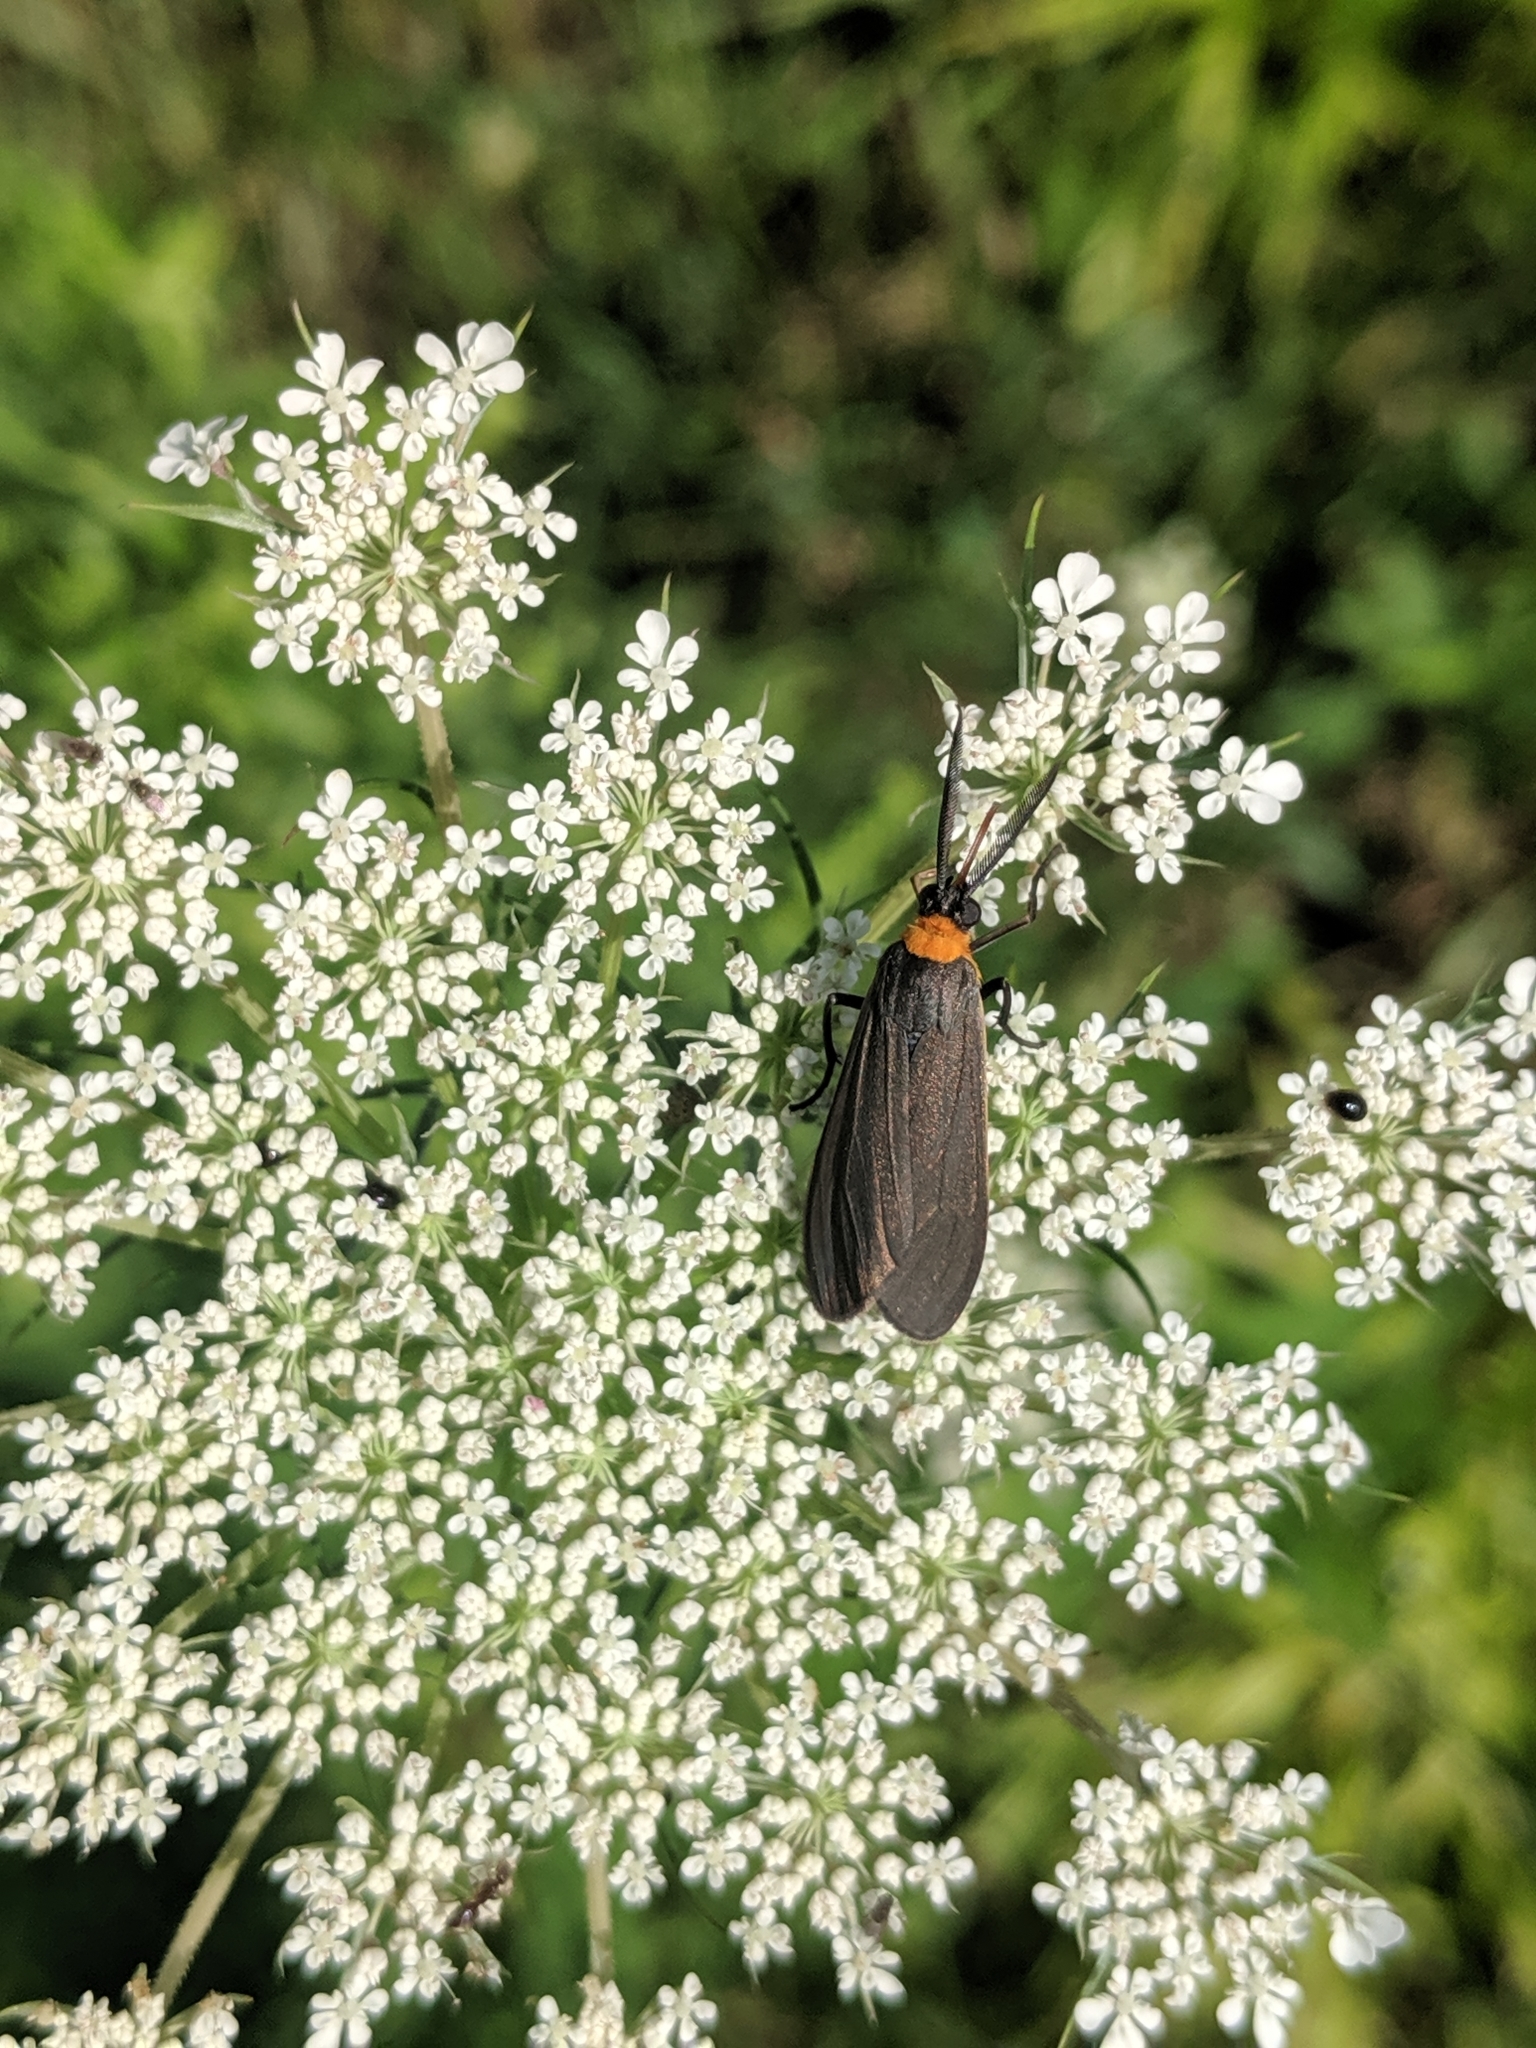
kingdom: Animalia
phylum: Arthropoda
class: Insecta
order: Lepidoptera
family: Erebidae
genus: Cisseps
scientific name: Cisseps fulvicollis
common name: Yellow-collared scape moth
